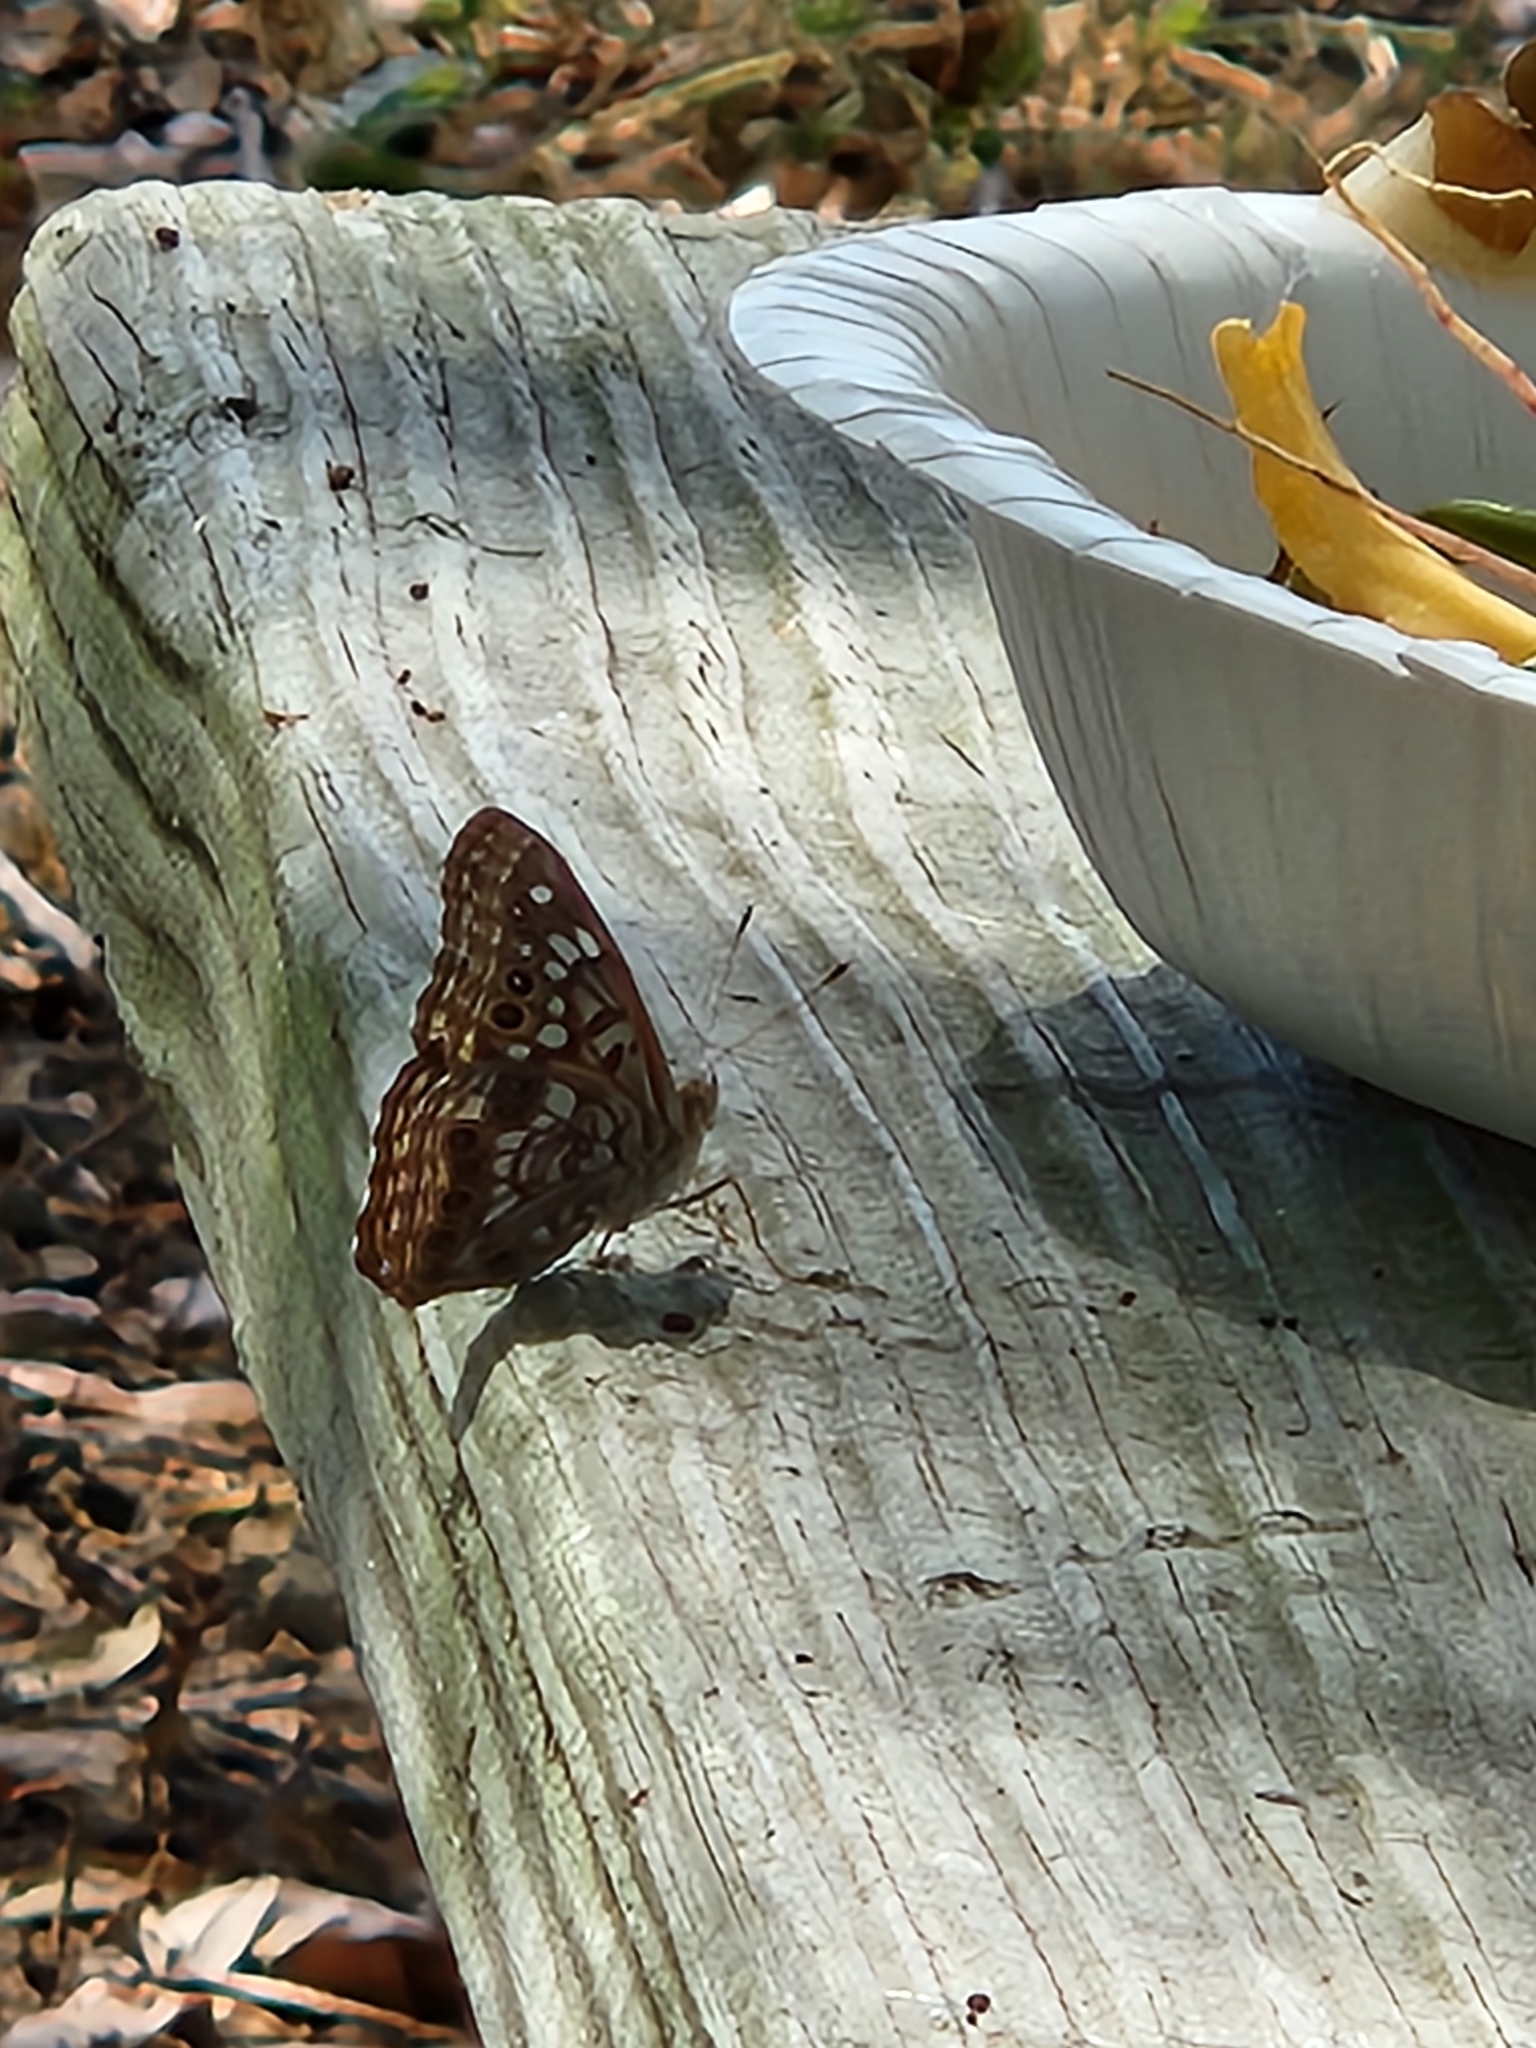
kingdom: Animalia
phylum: Arthropoda
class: Insecta
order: Lepidoptera
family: Nymphalidae
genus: Asterocampa
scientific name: Asterocampa celtis
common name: Hackberry emperor
